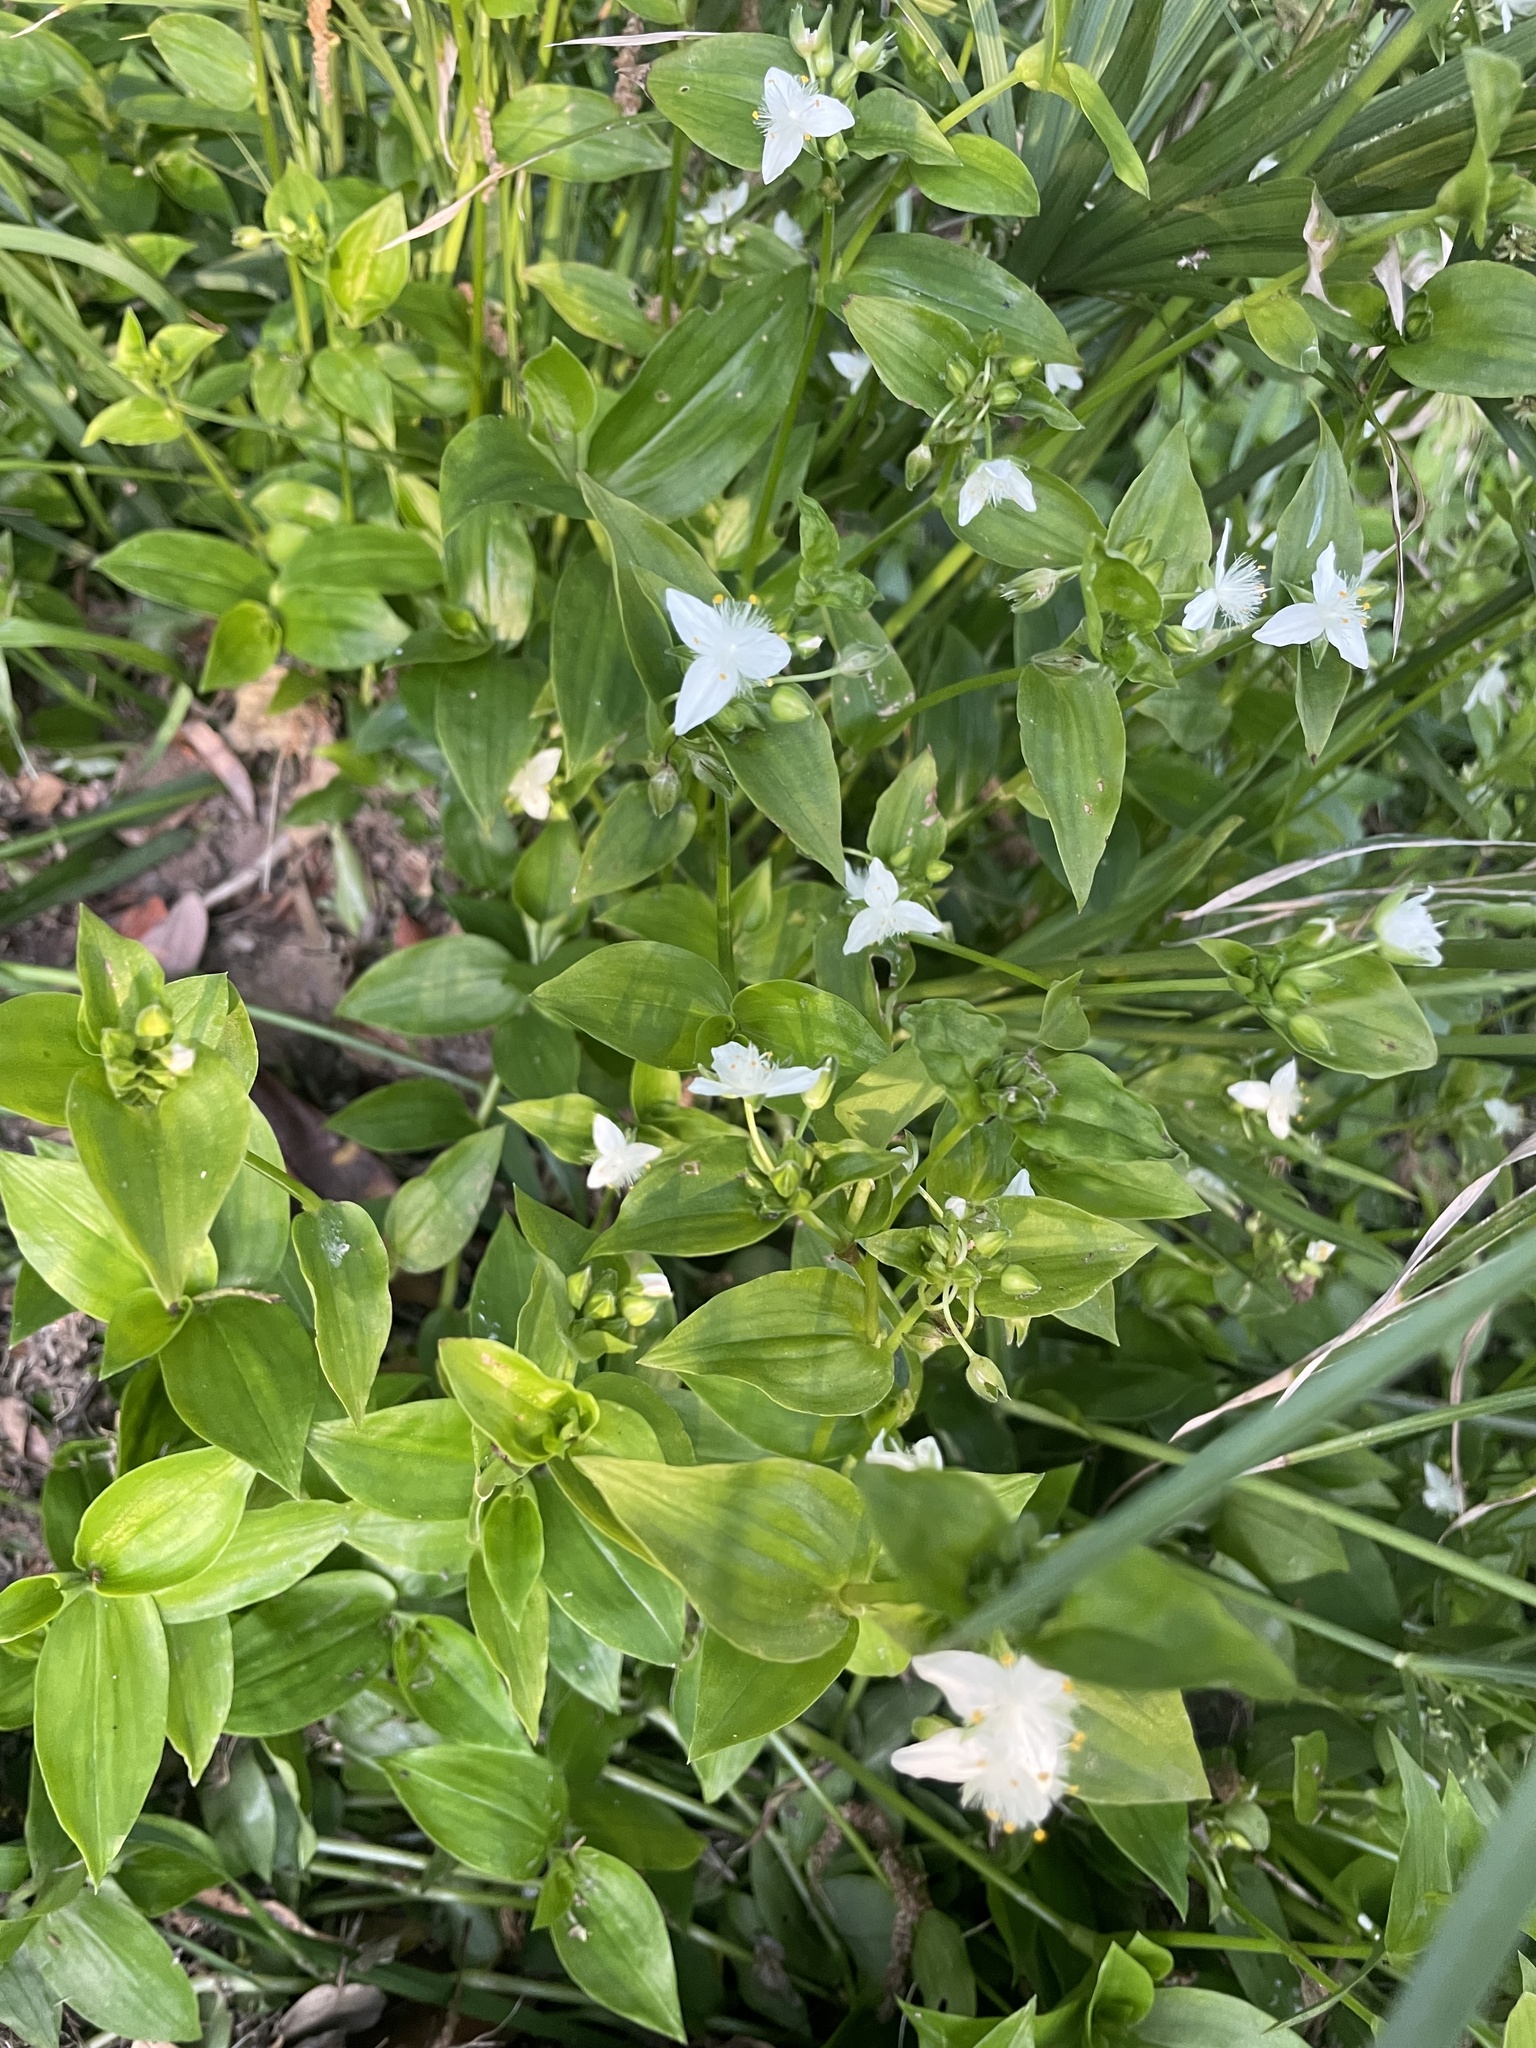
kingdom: Plantae
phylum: Tracheophyta
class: Liliopsida
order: Commelinales
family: Commelinaceae
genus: Tradescantia
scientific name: Tradescantia fluminensis
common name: Wandering-jew
